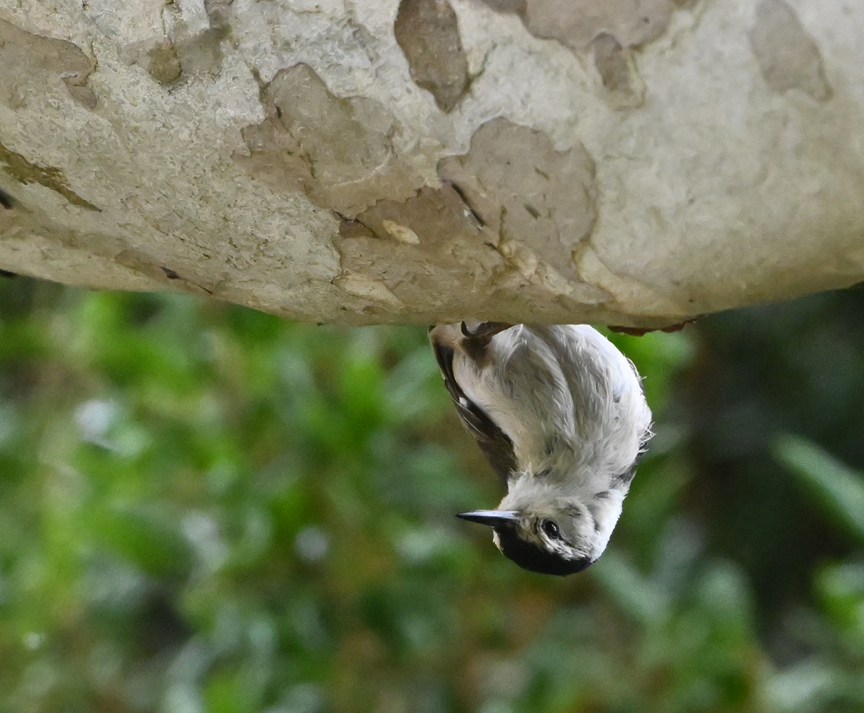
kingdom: Animalia
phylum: Chordata
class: Aves
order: Passeriformes
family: Sittidae
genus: Sitta
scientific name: Sitta carolinensis
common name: White-breasted nuthatch
